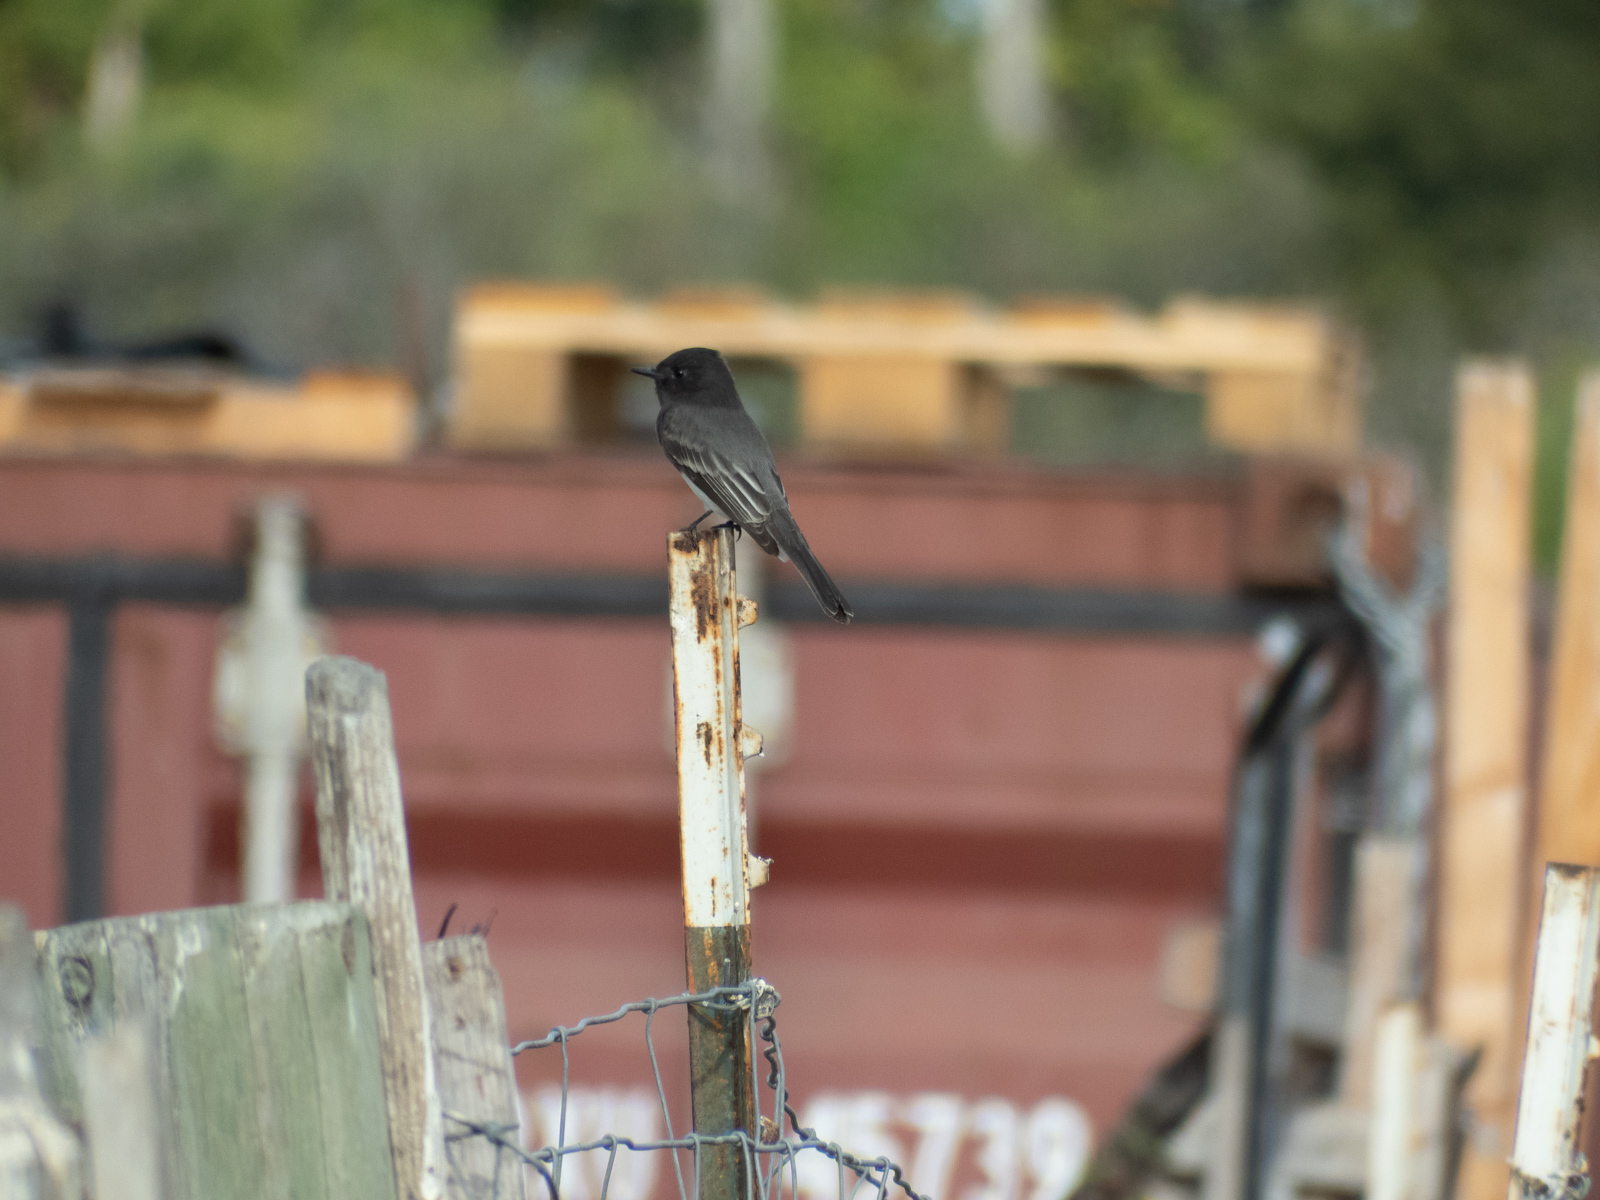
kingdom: Animalia
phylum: Chordata
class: Aves
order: Passeriformes
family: Tyrannidae
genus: Sayornis
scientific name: Sayornis nigricans
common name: Black phoebe
